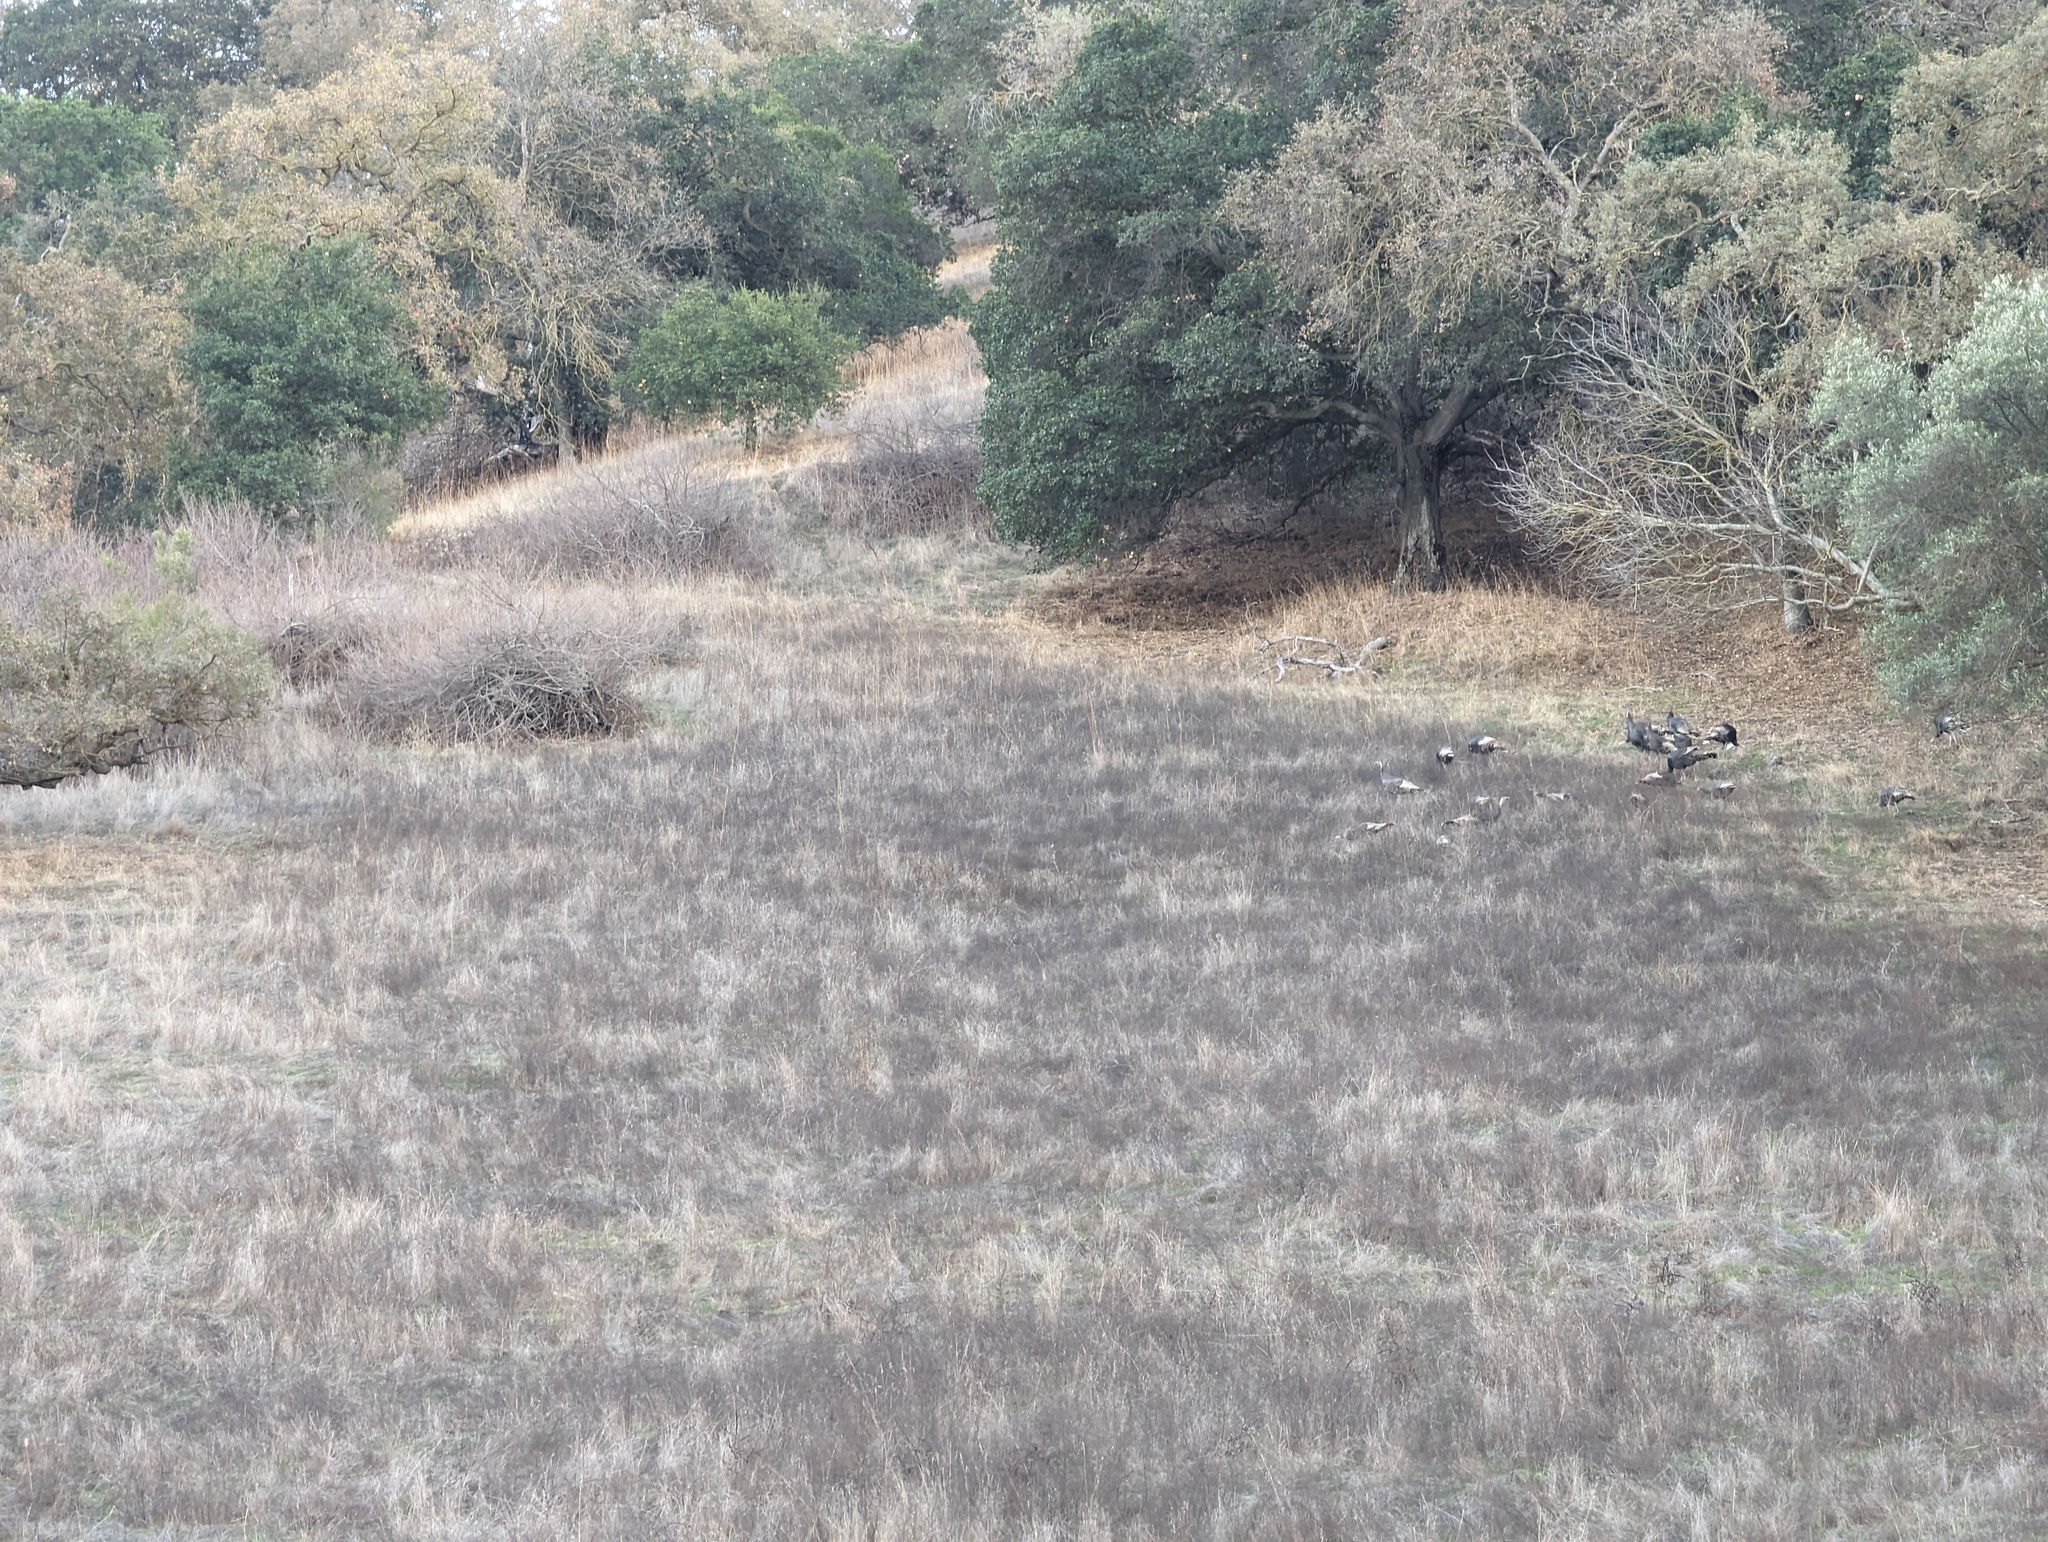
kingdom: Animalia
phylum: Chordata
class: Aves
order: Galliformes
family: Phasianidae
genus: Meleagris
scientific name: Meleagris gallopavo
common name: Wild turkey
